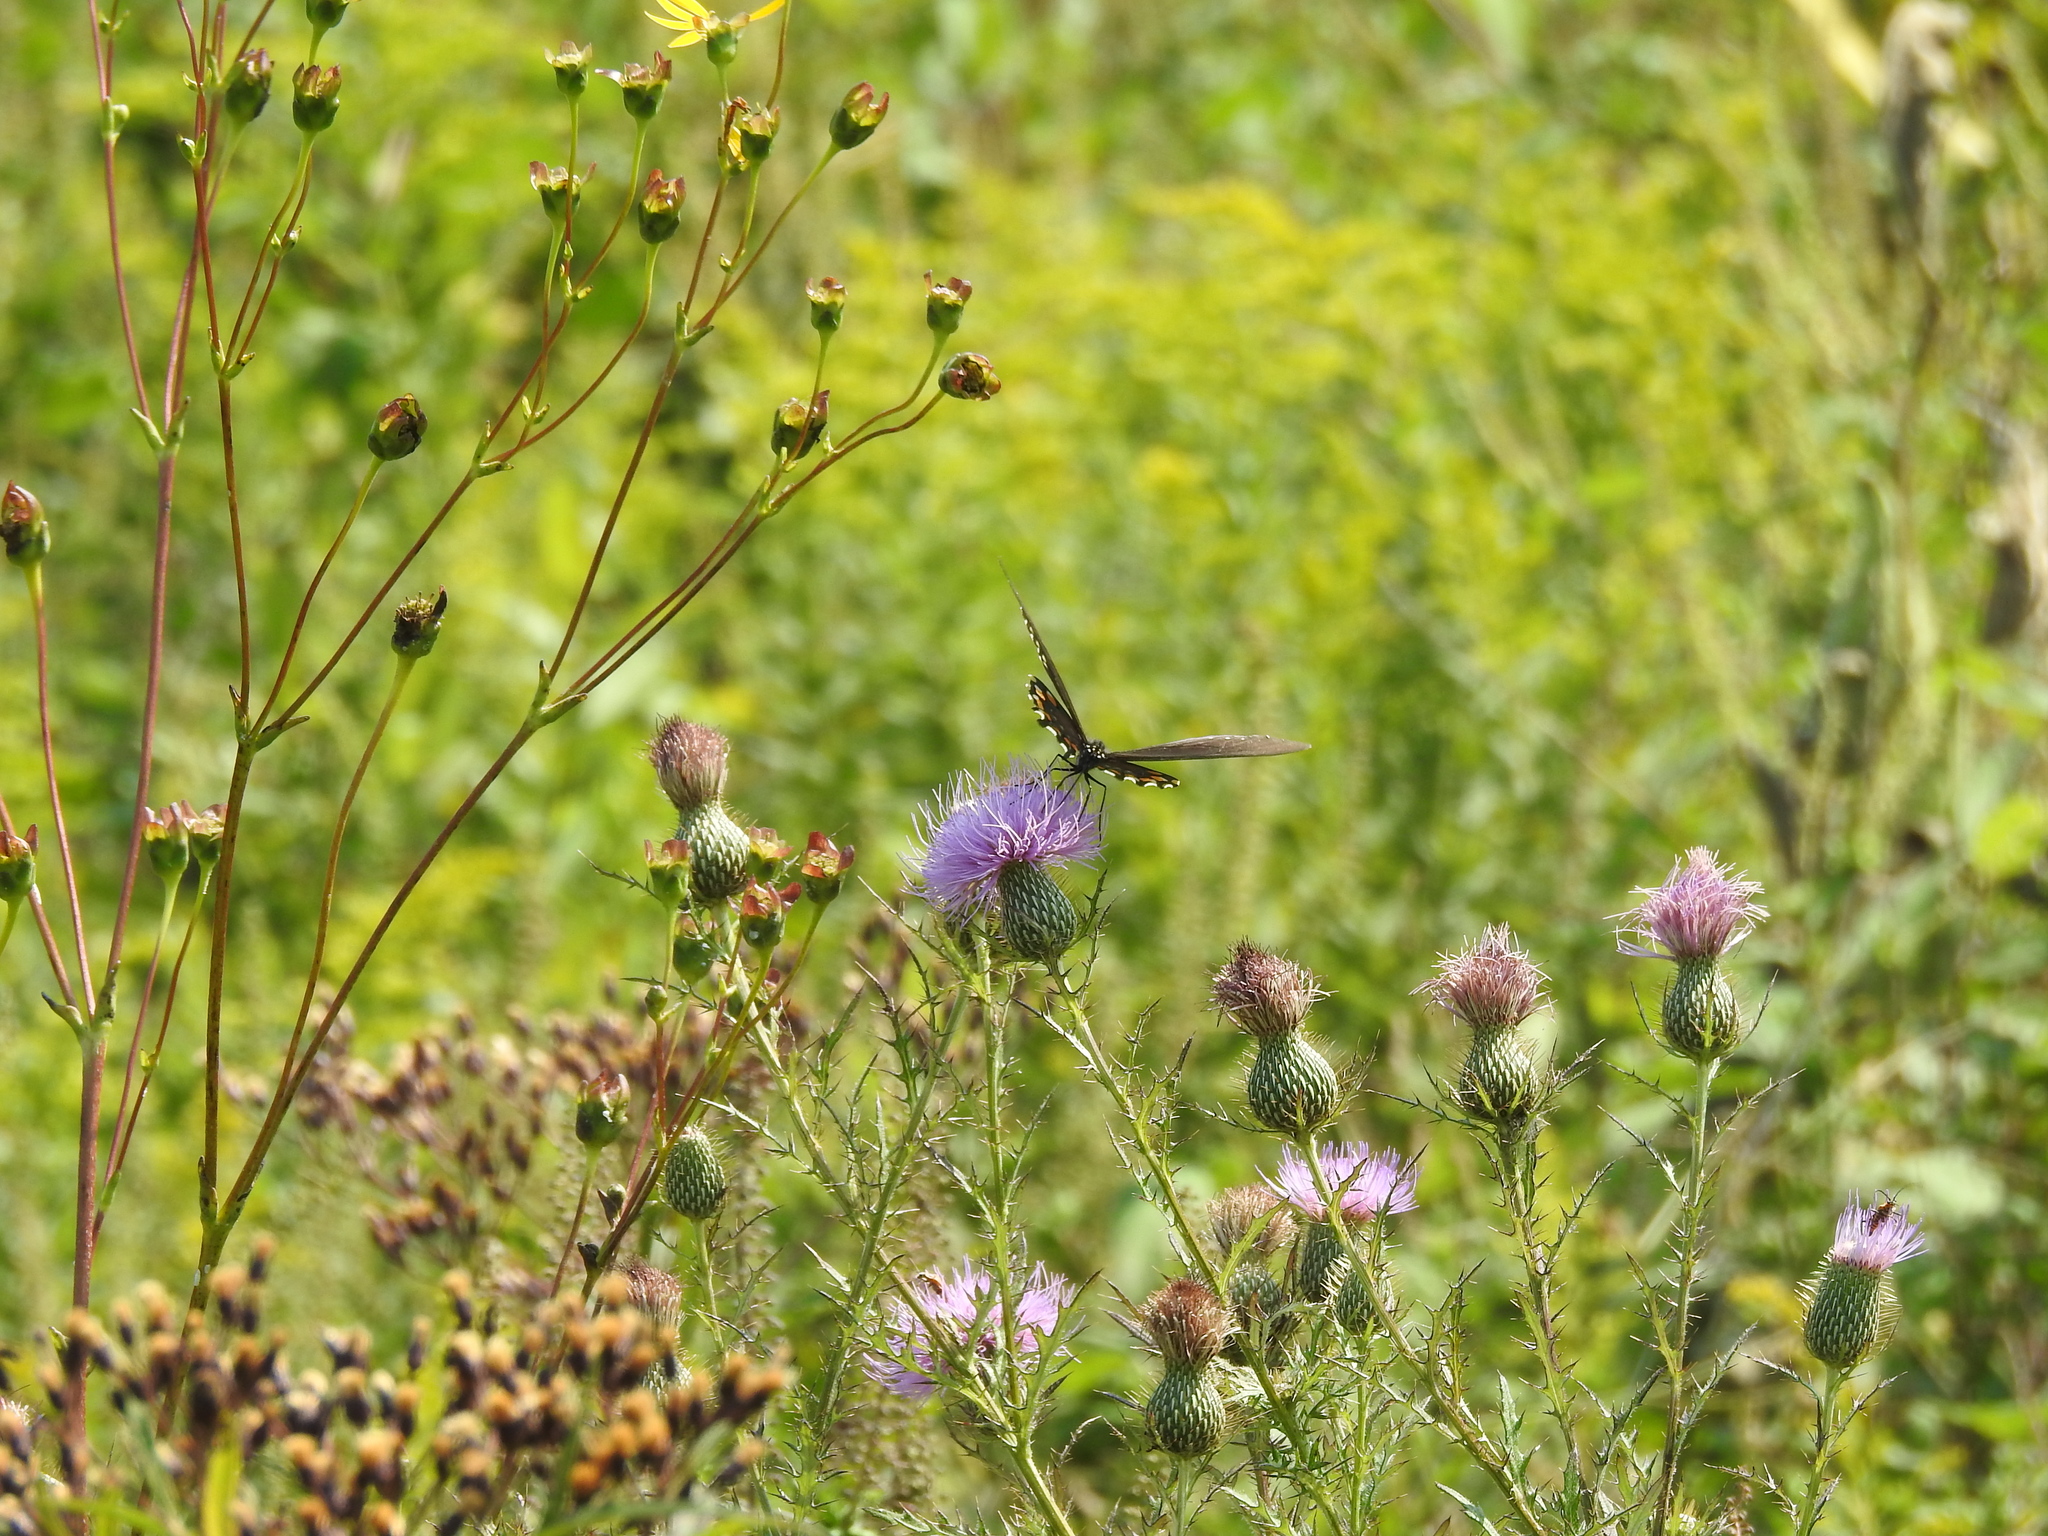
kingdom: Animalia
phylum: Arthropoda
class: Insecta
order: Lepidoptera
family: Papilionidae
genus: Battus
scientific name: Battus philenor
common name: Pipevine swallowtail
